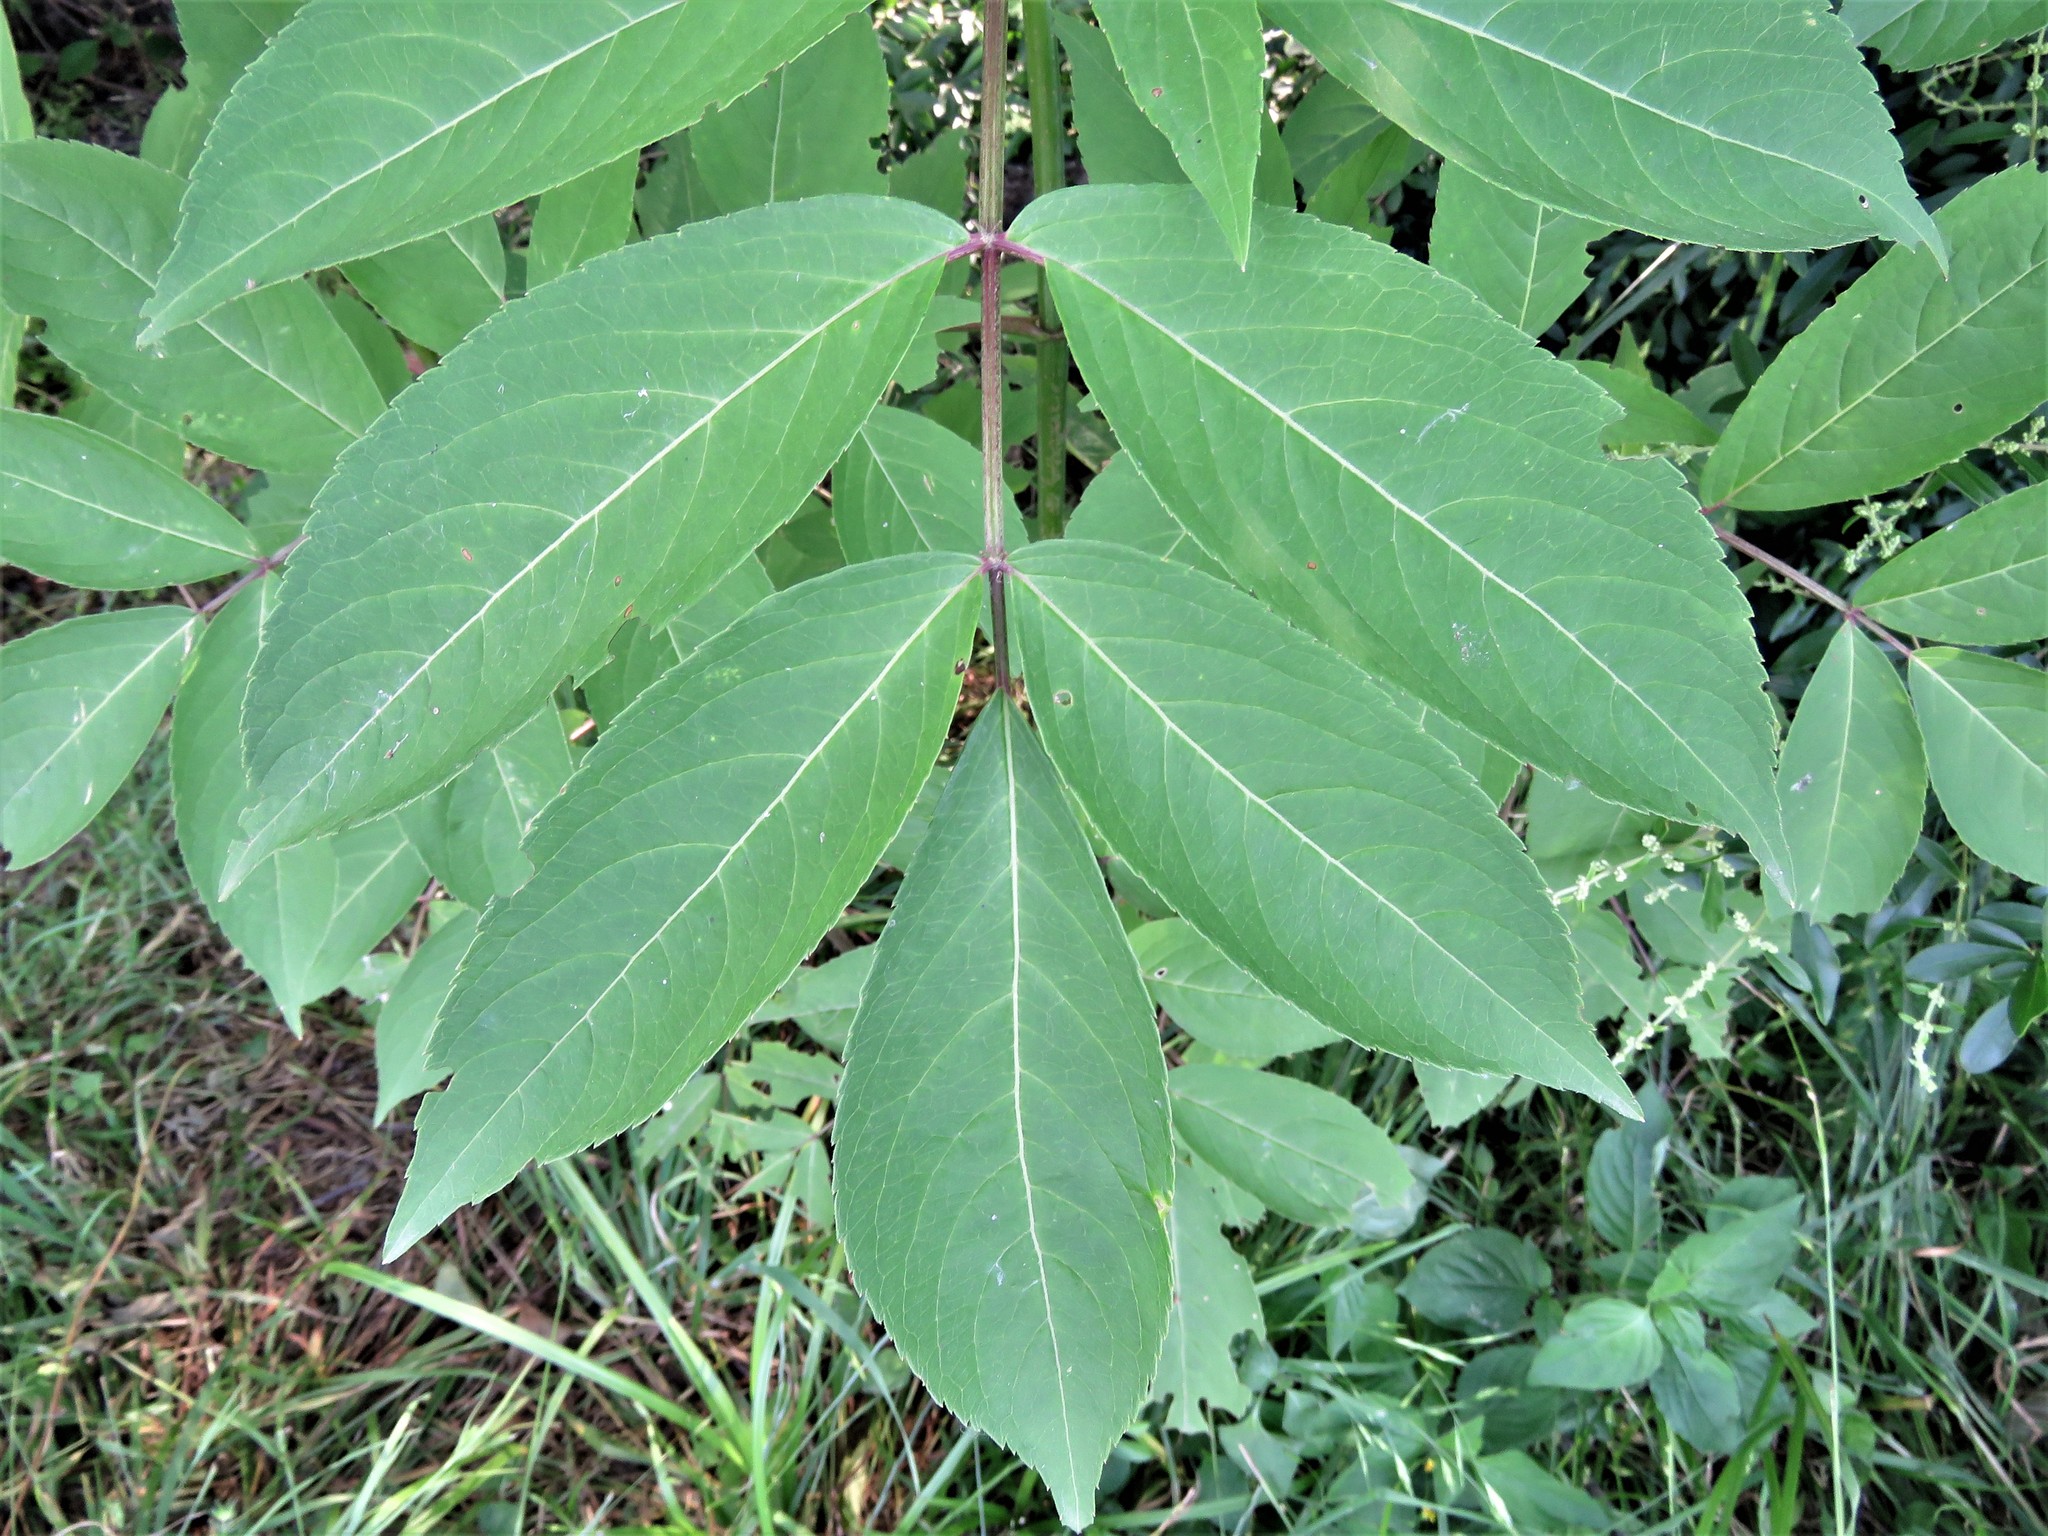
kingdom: Plantae
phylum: Tracheophyta
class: Magnoliopsida
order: Dipsacales
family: Viburnaceae
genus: Sambucus
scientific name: Sambucus canadensis
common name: American elder
